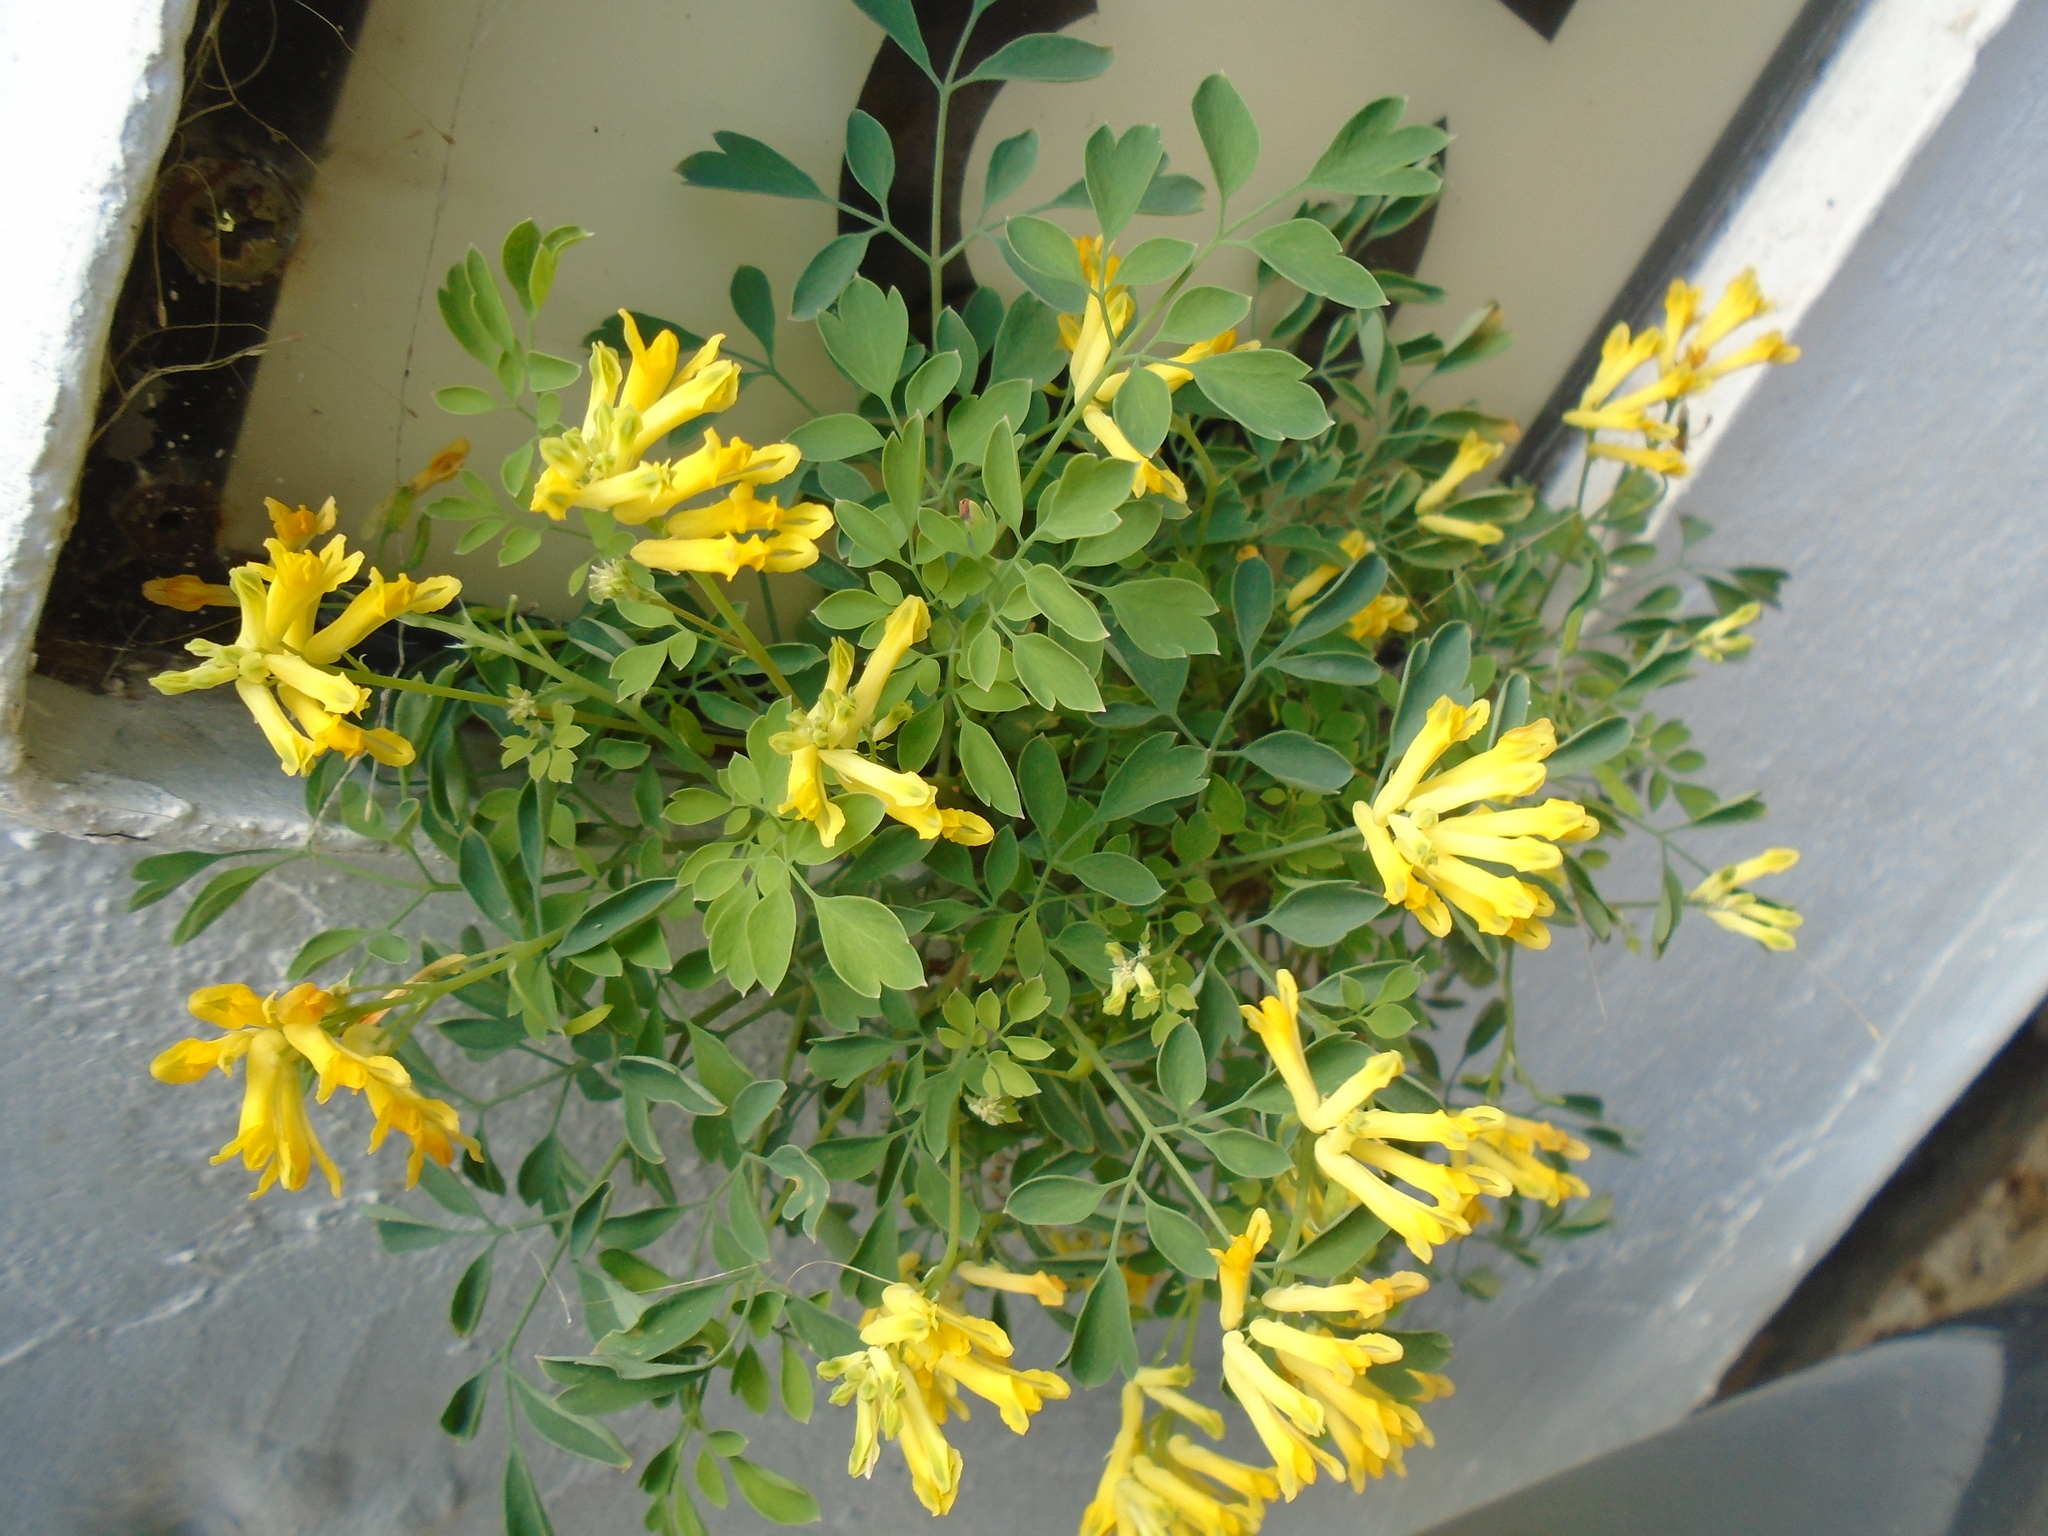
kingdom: Plantae
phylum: Tracheophyta
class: Magnoliopsida
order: Ranunculales
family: Papaveraceae
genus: Pseudofumaria
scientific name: Pseudofumaria lutea
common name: Yellow corydalis
